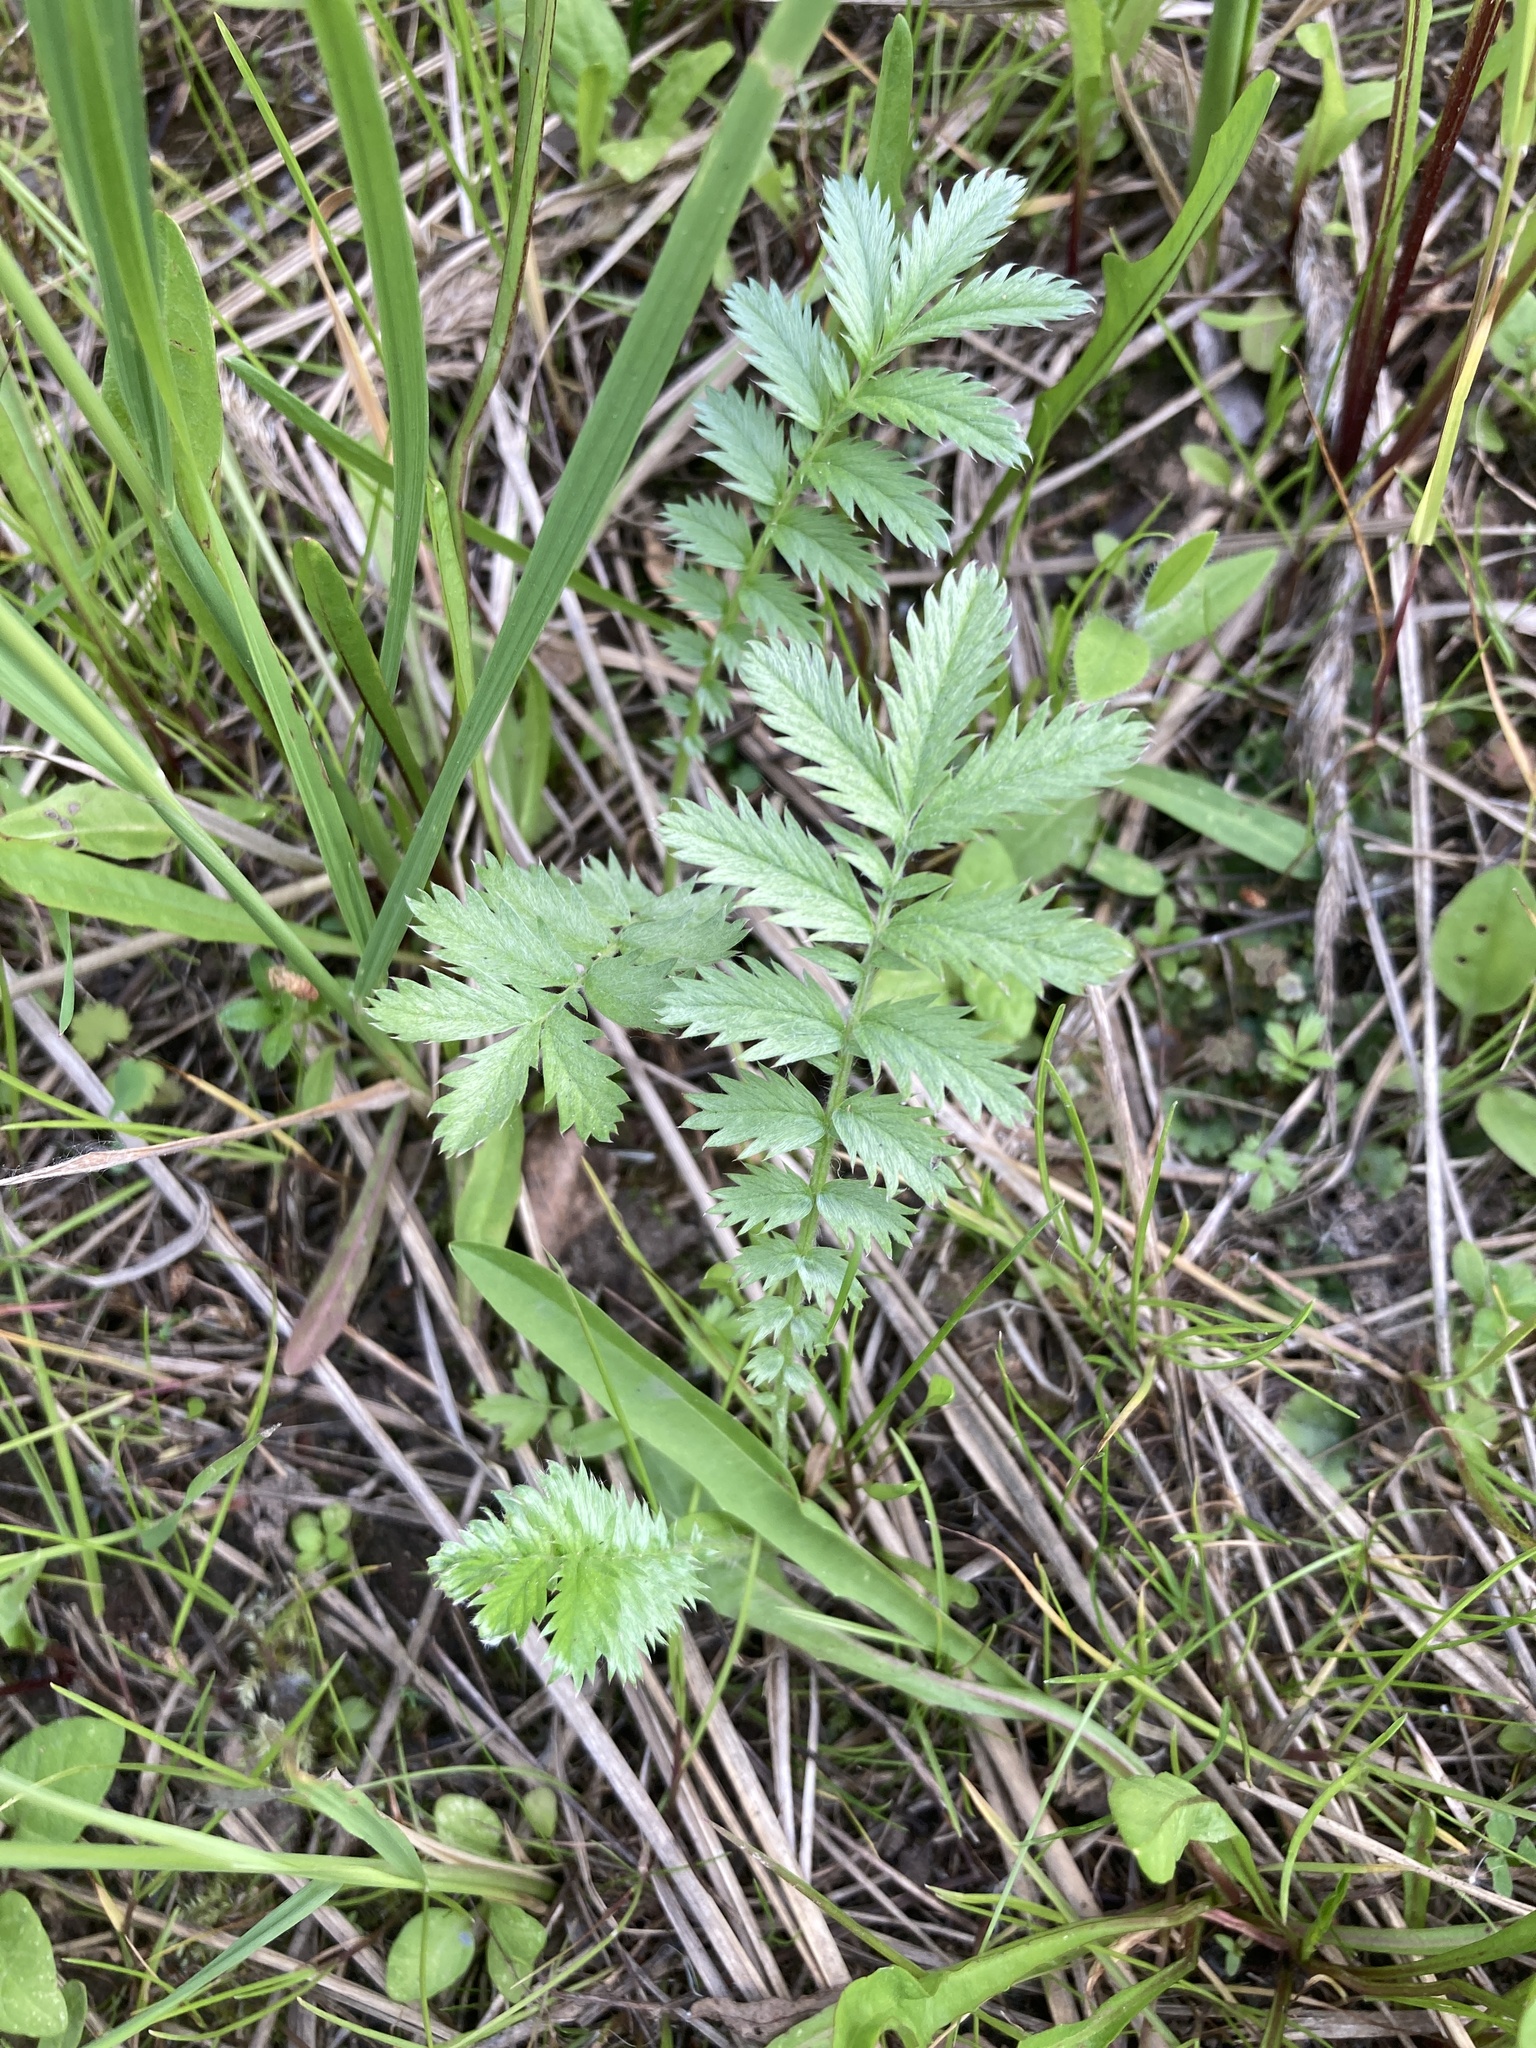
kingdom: Plantae
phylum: Tracheophyta
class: Magnoliopsida
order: Rosales
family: Rosaceae
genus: Argentina
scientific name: Argentina anserina
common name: Common silverweed
